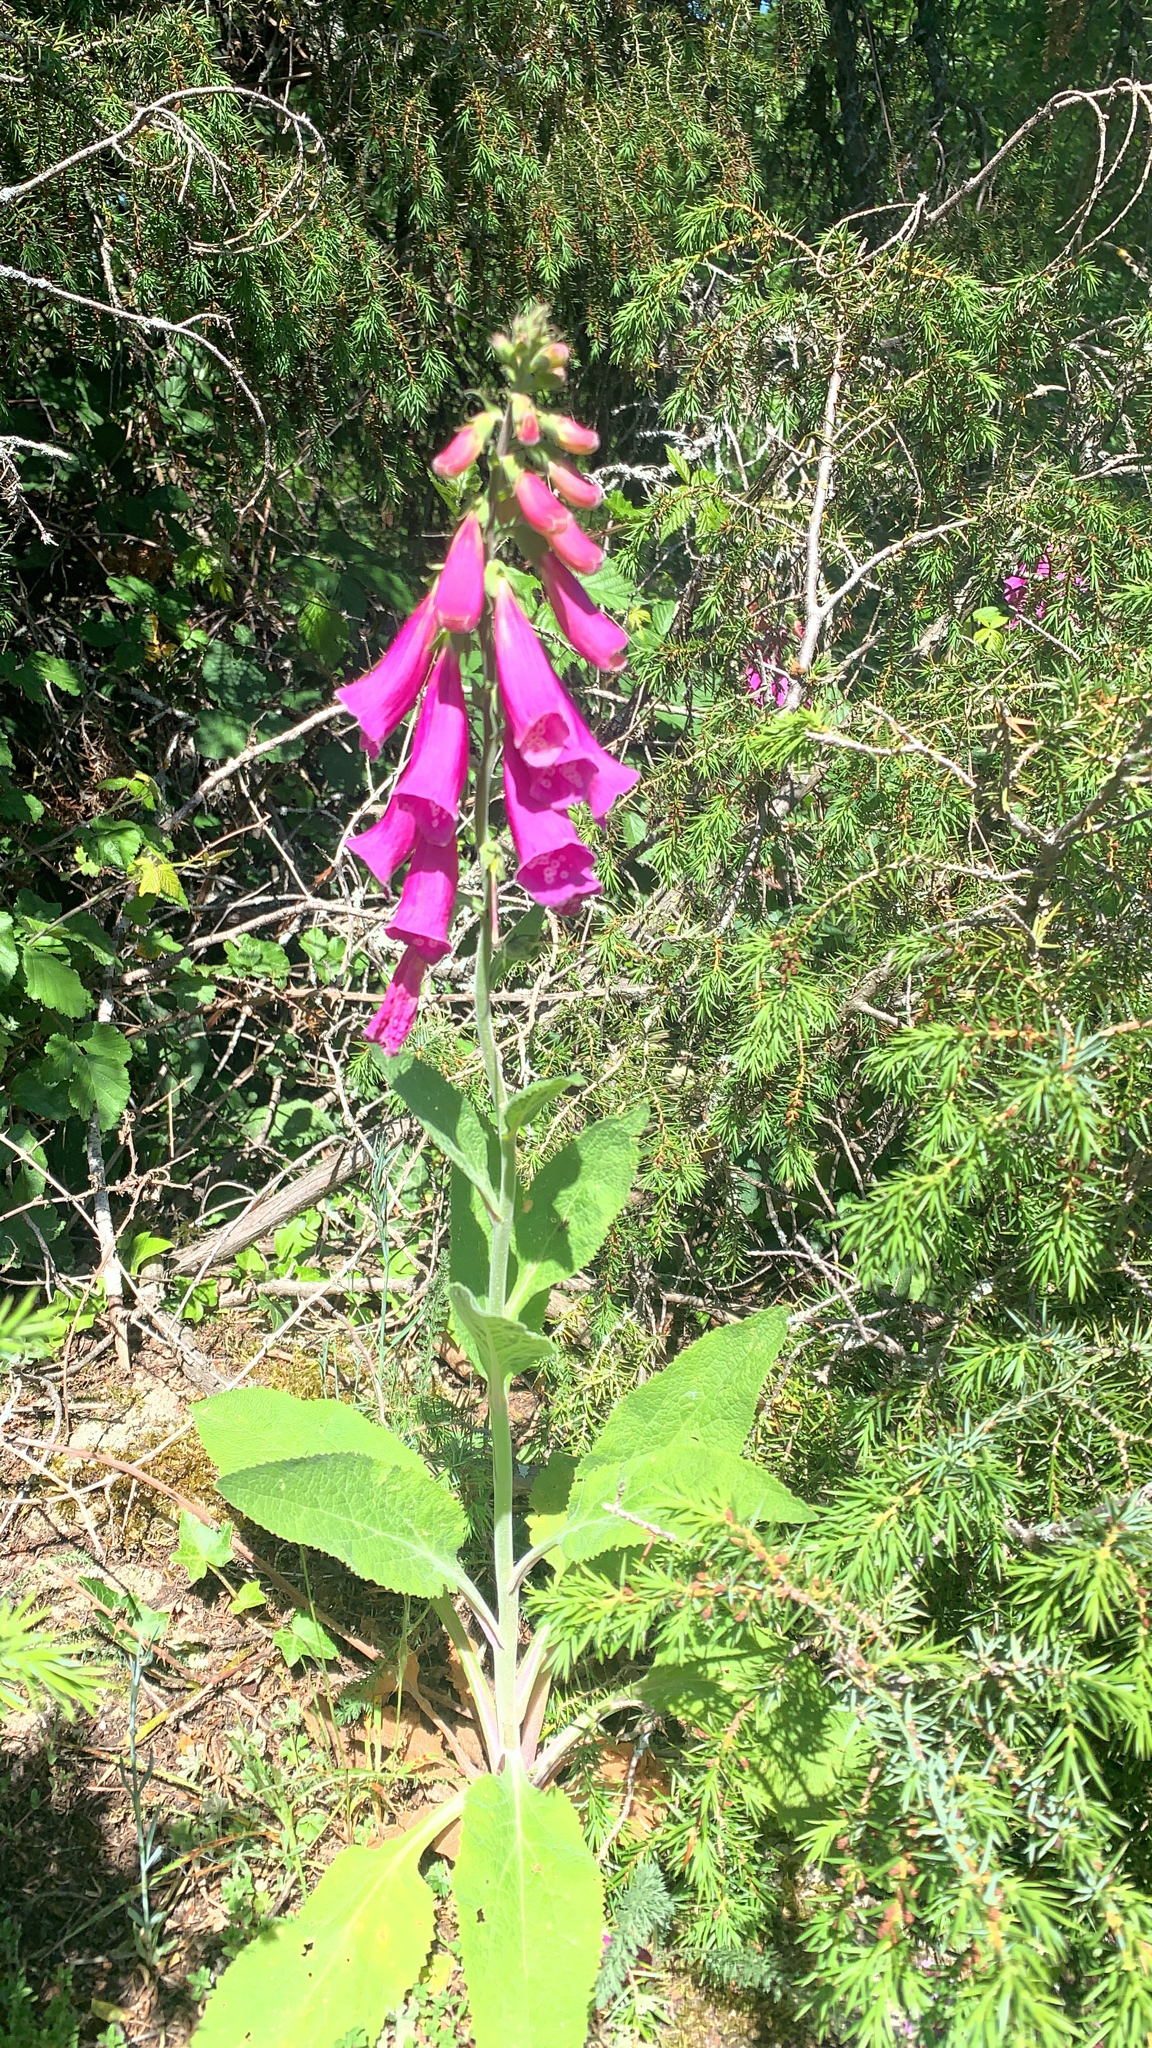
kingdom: Plantae
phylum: Tracheophyta
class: Magnoliopsida
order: Lamiales
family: Plantaginaceae
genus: Digitalis
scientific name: Digitalis purpurea
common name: Foxglove
